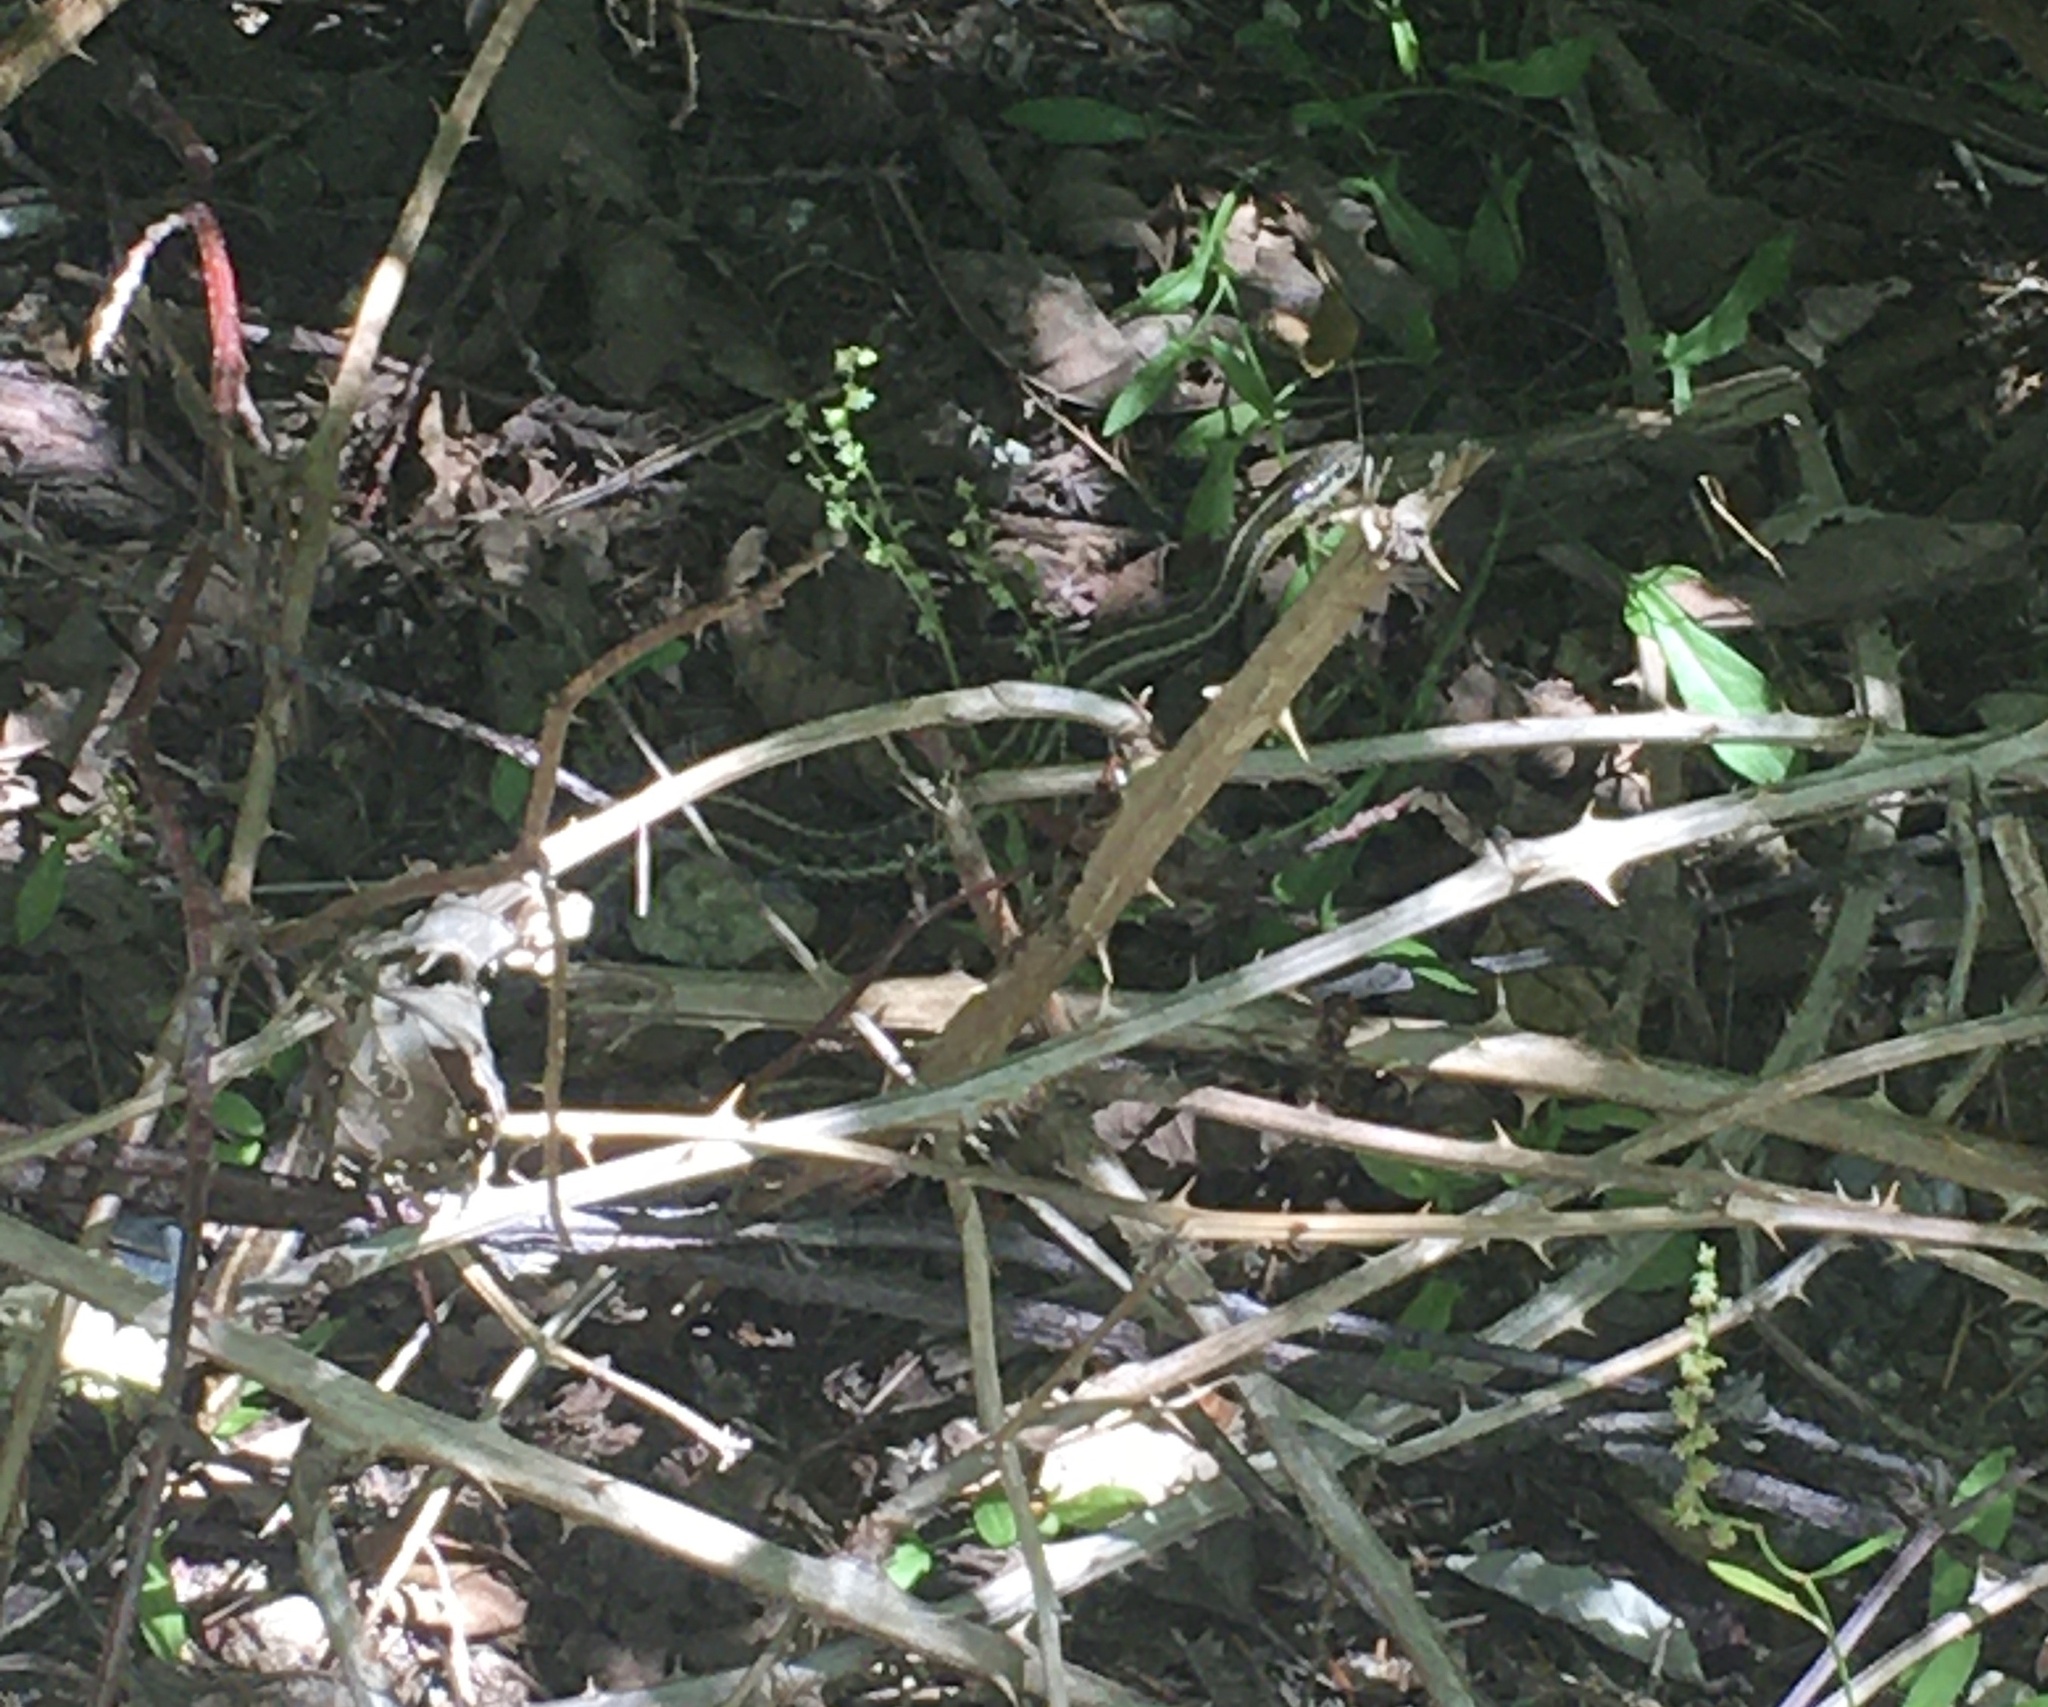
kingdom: Animalia
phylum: Chordata
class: Squamata
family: Colubridae
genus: Thamnophis
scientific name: Thamnophis ordinoides
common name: Northwestern garter snake
